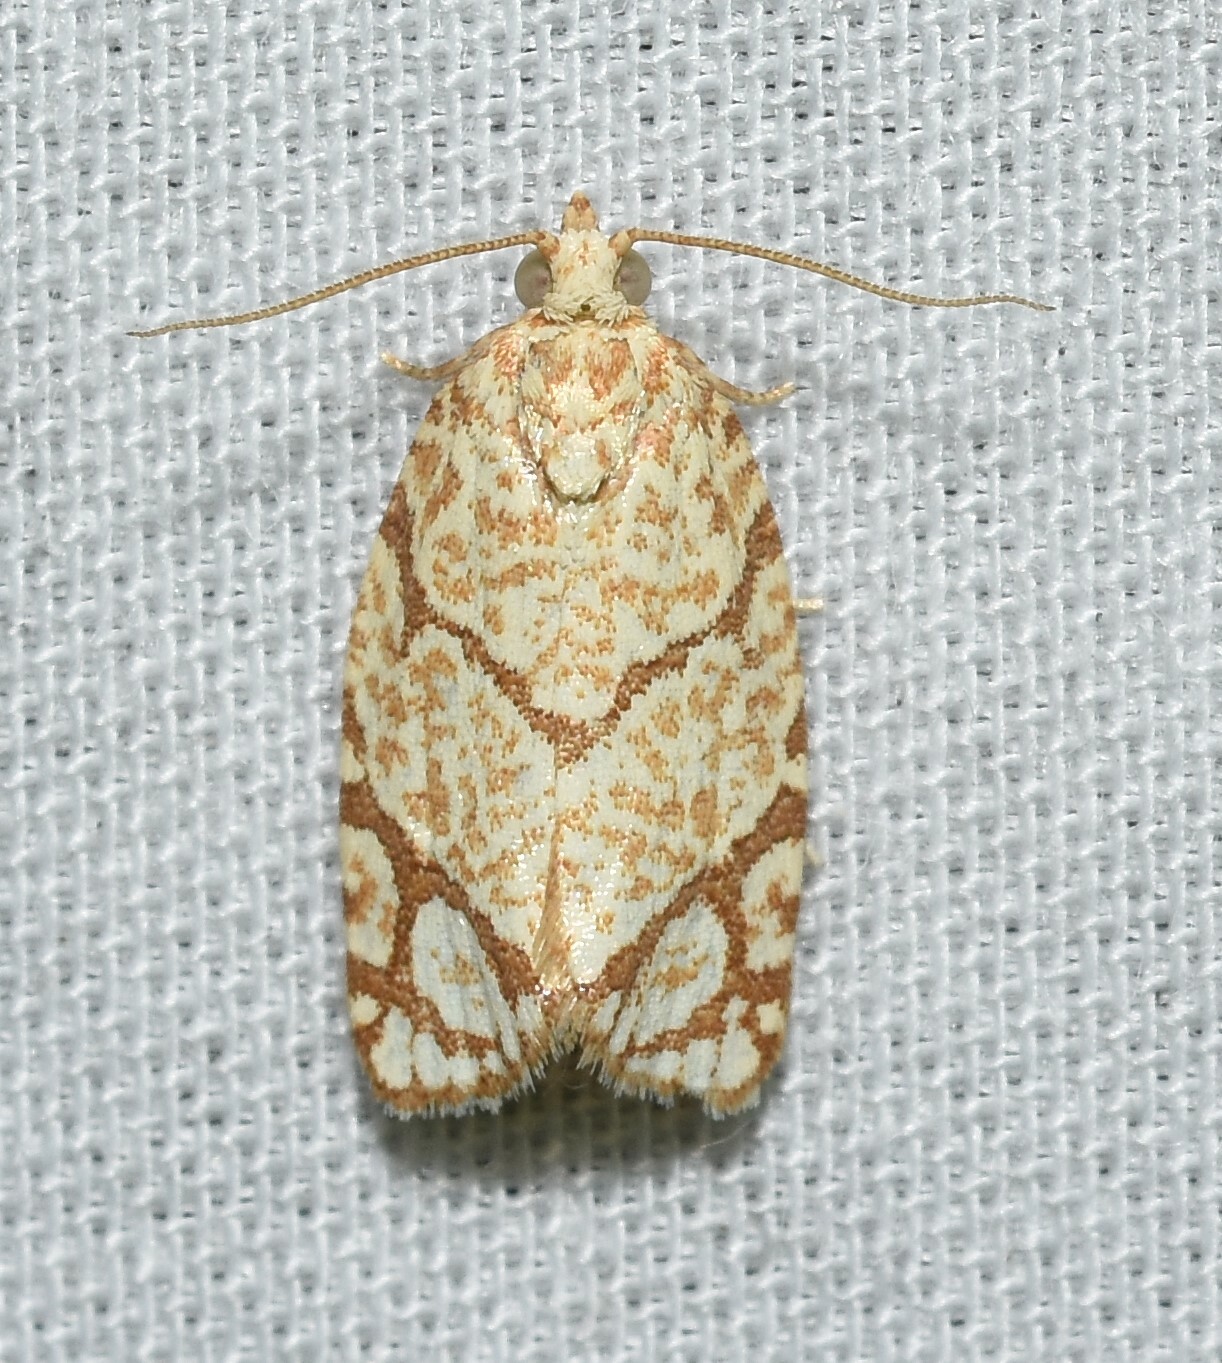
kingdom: Animalia
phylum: Arthropoda
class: Insecta
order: Lepidoptera
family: Tortricidae
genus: Argyrotaenia
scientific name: Argyrotaenia quercifoliana
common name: Yellow-winged oak leafroller moth
